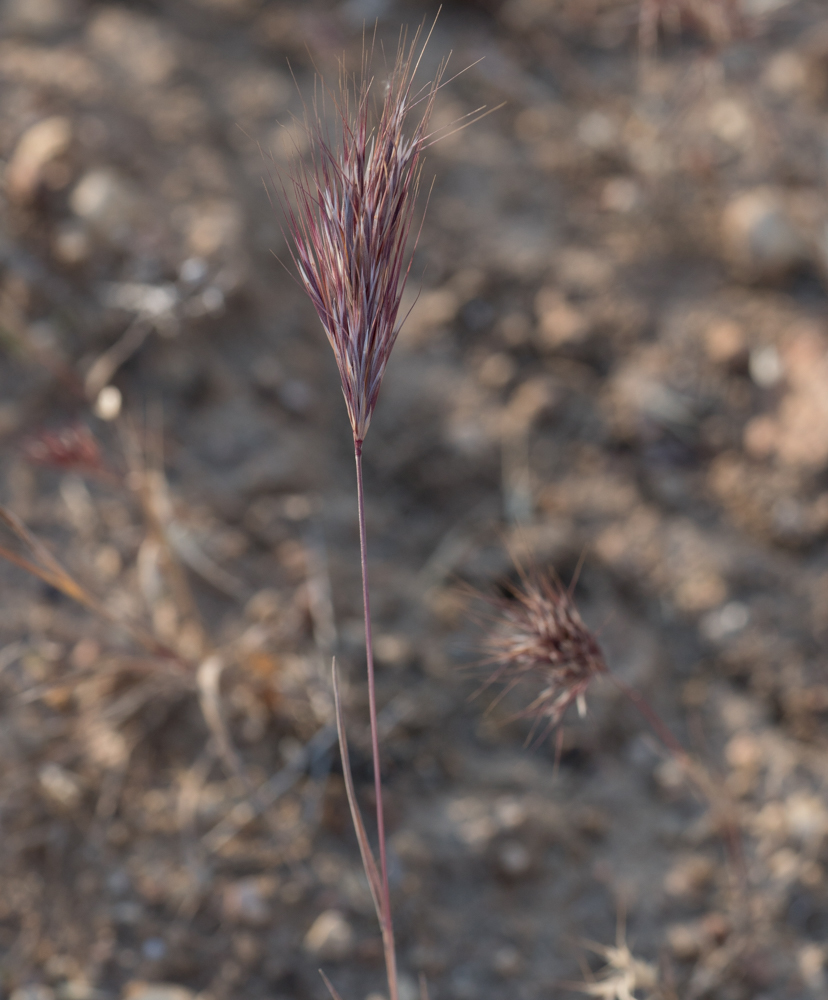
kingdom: Plantae
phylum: Tracheophyta
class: Liliopsida
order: Poales
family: Poaceae
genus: Bromus
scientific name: Bromus rubens
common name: Red brome
